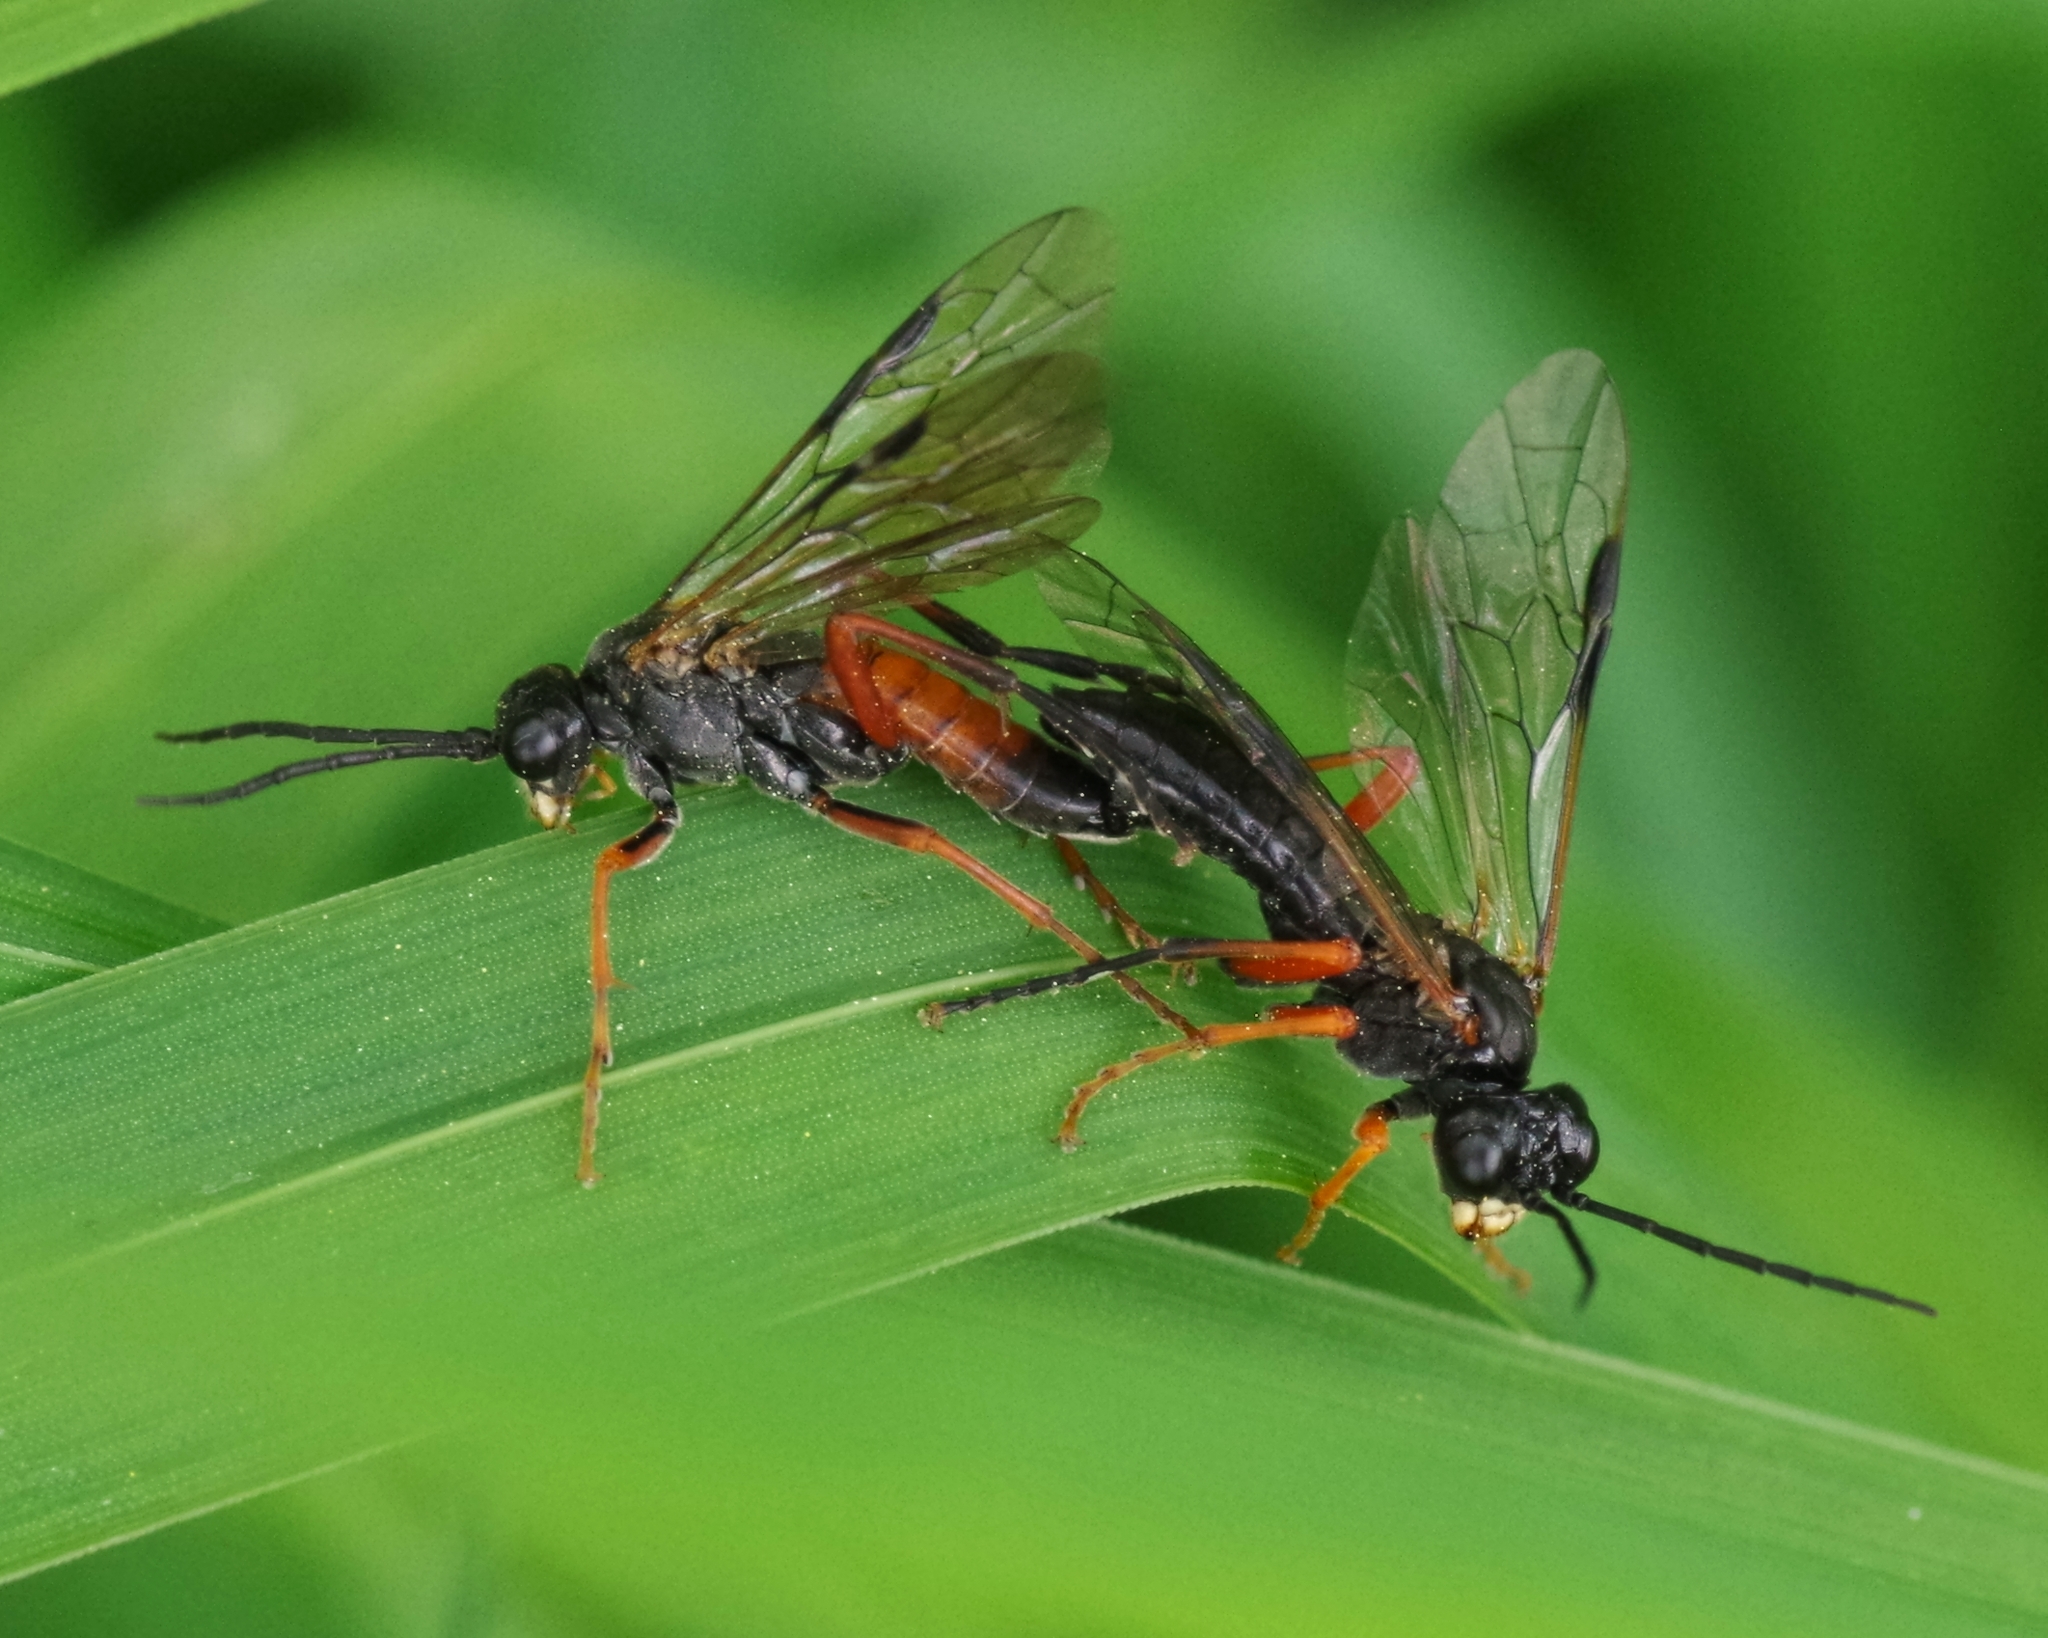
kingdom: Animalia
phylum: Arthropoda
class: Insecta
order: Hymenoptera
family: Tenthredinidae
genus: Tenthredo
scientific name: Tenthredo atra
